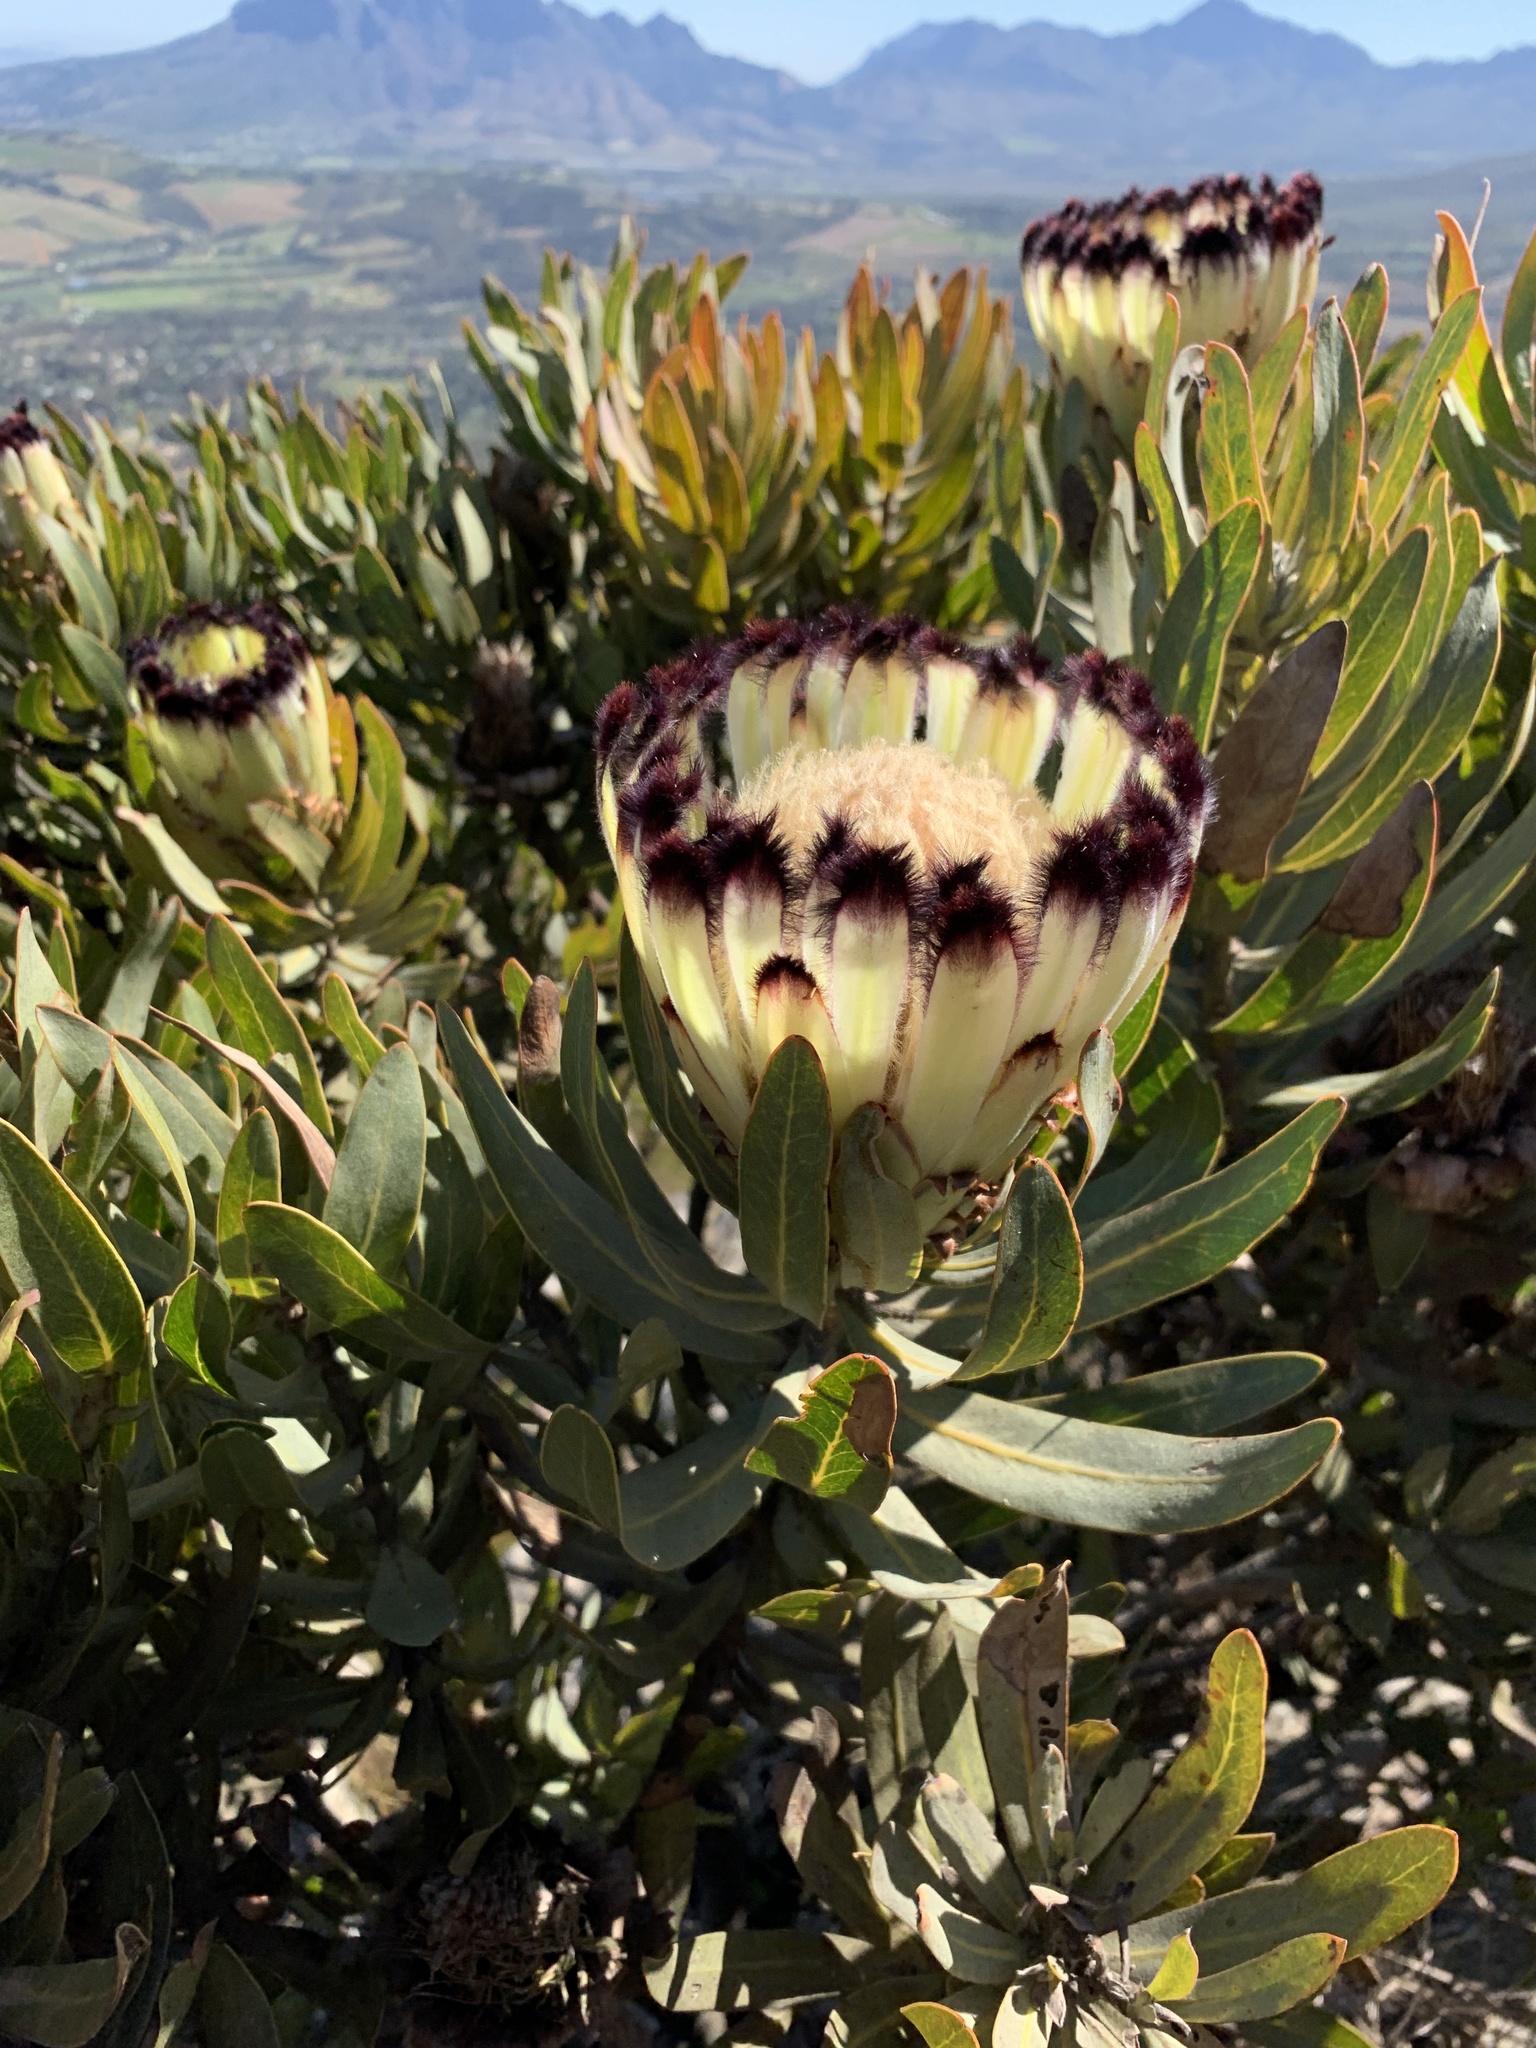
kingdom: Plantae
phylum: Tracheophyta
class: Magnoliopsida
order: Proteales
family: Proteaceae
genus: Protea
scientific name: Protea
